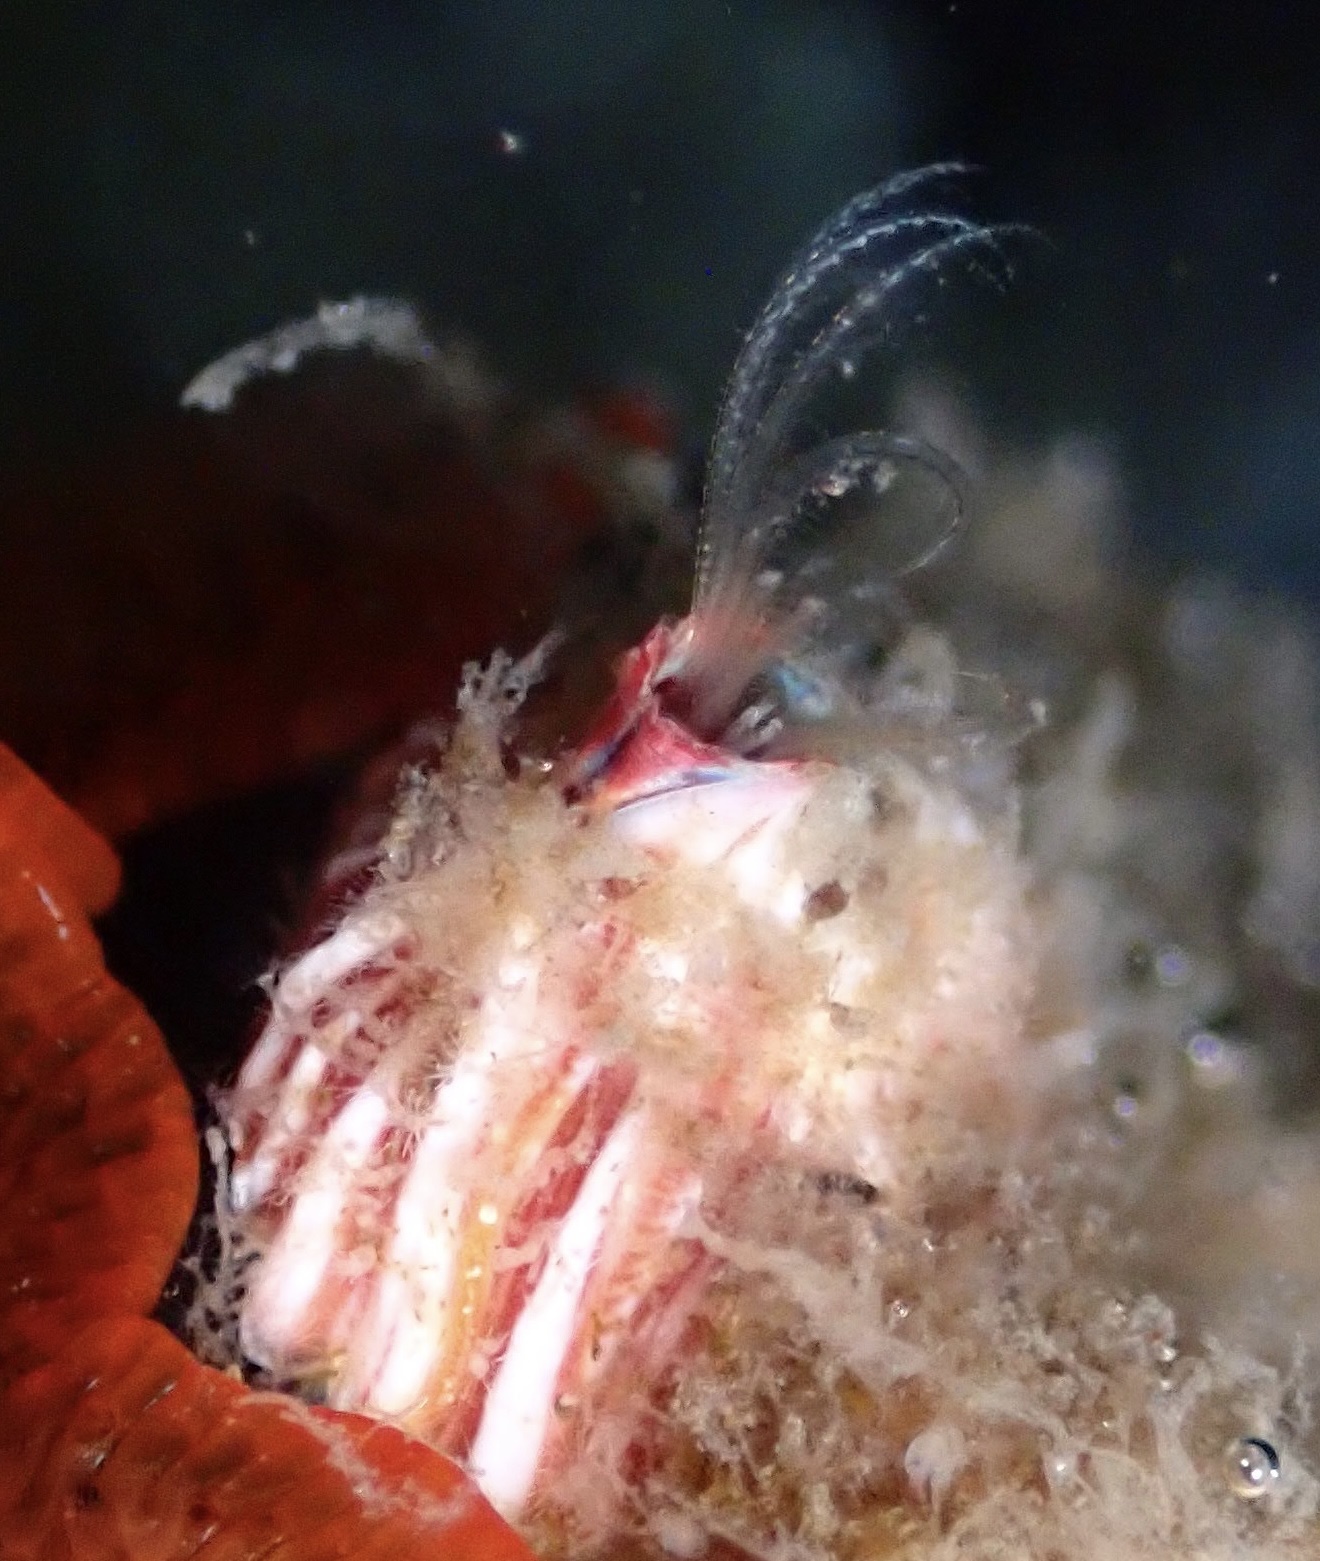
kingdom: Animalia
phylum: Arthropoda
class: Maxillopoda
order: Sessilia
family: Balanidae
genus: Megabalanus
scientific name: Megabalanus californicus
